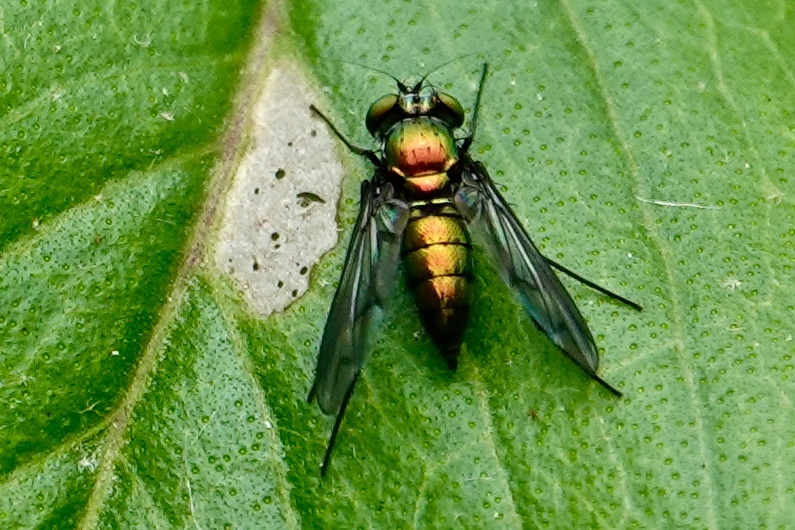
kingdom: Animalia
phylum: Arthropoda
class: Insecta
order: Diptera
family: Dolichopodidae
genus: Condylostylus
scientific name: Condylostylus patibulatus
